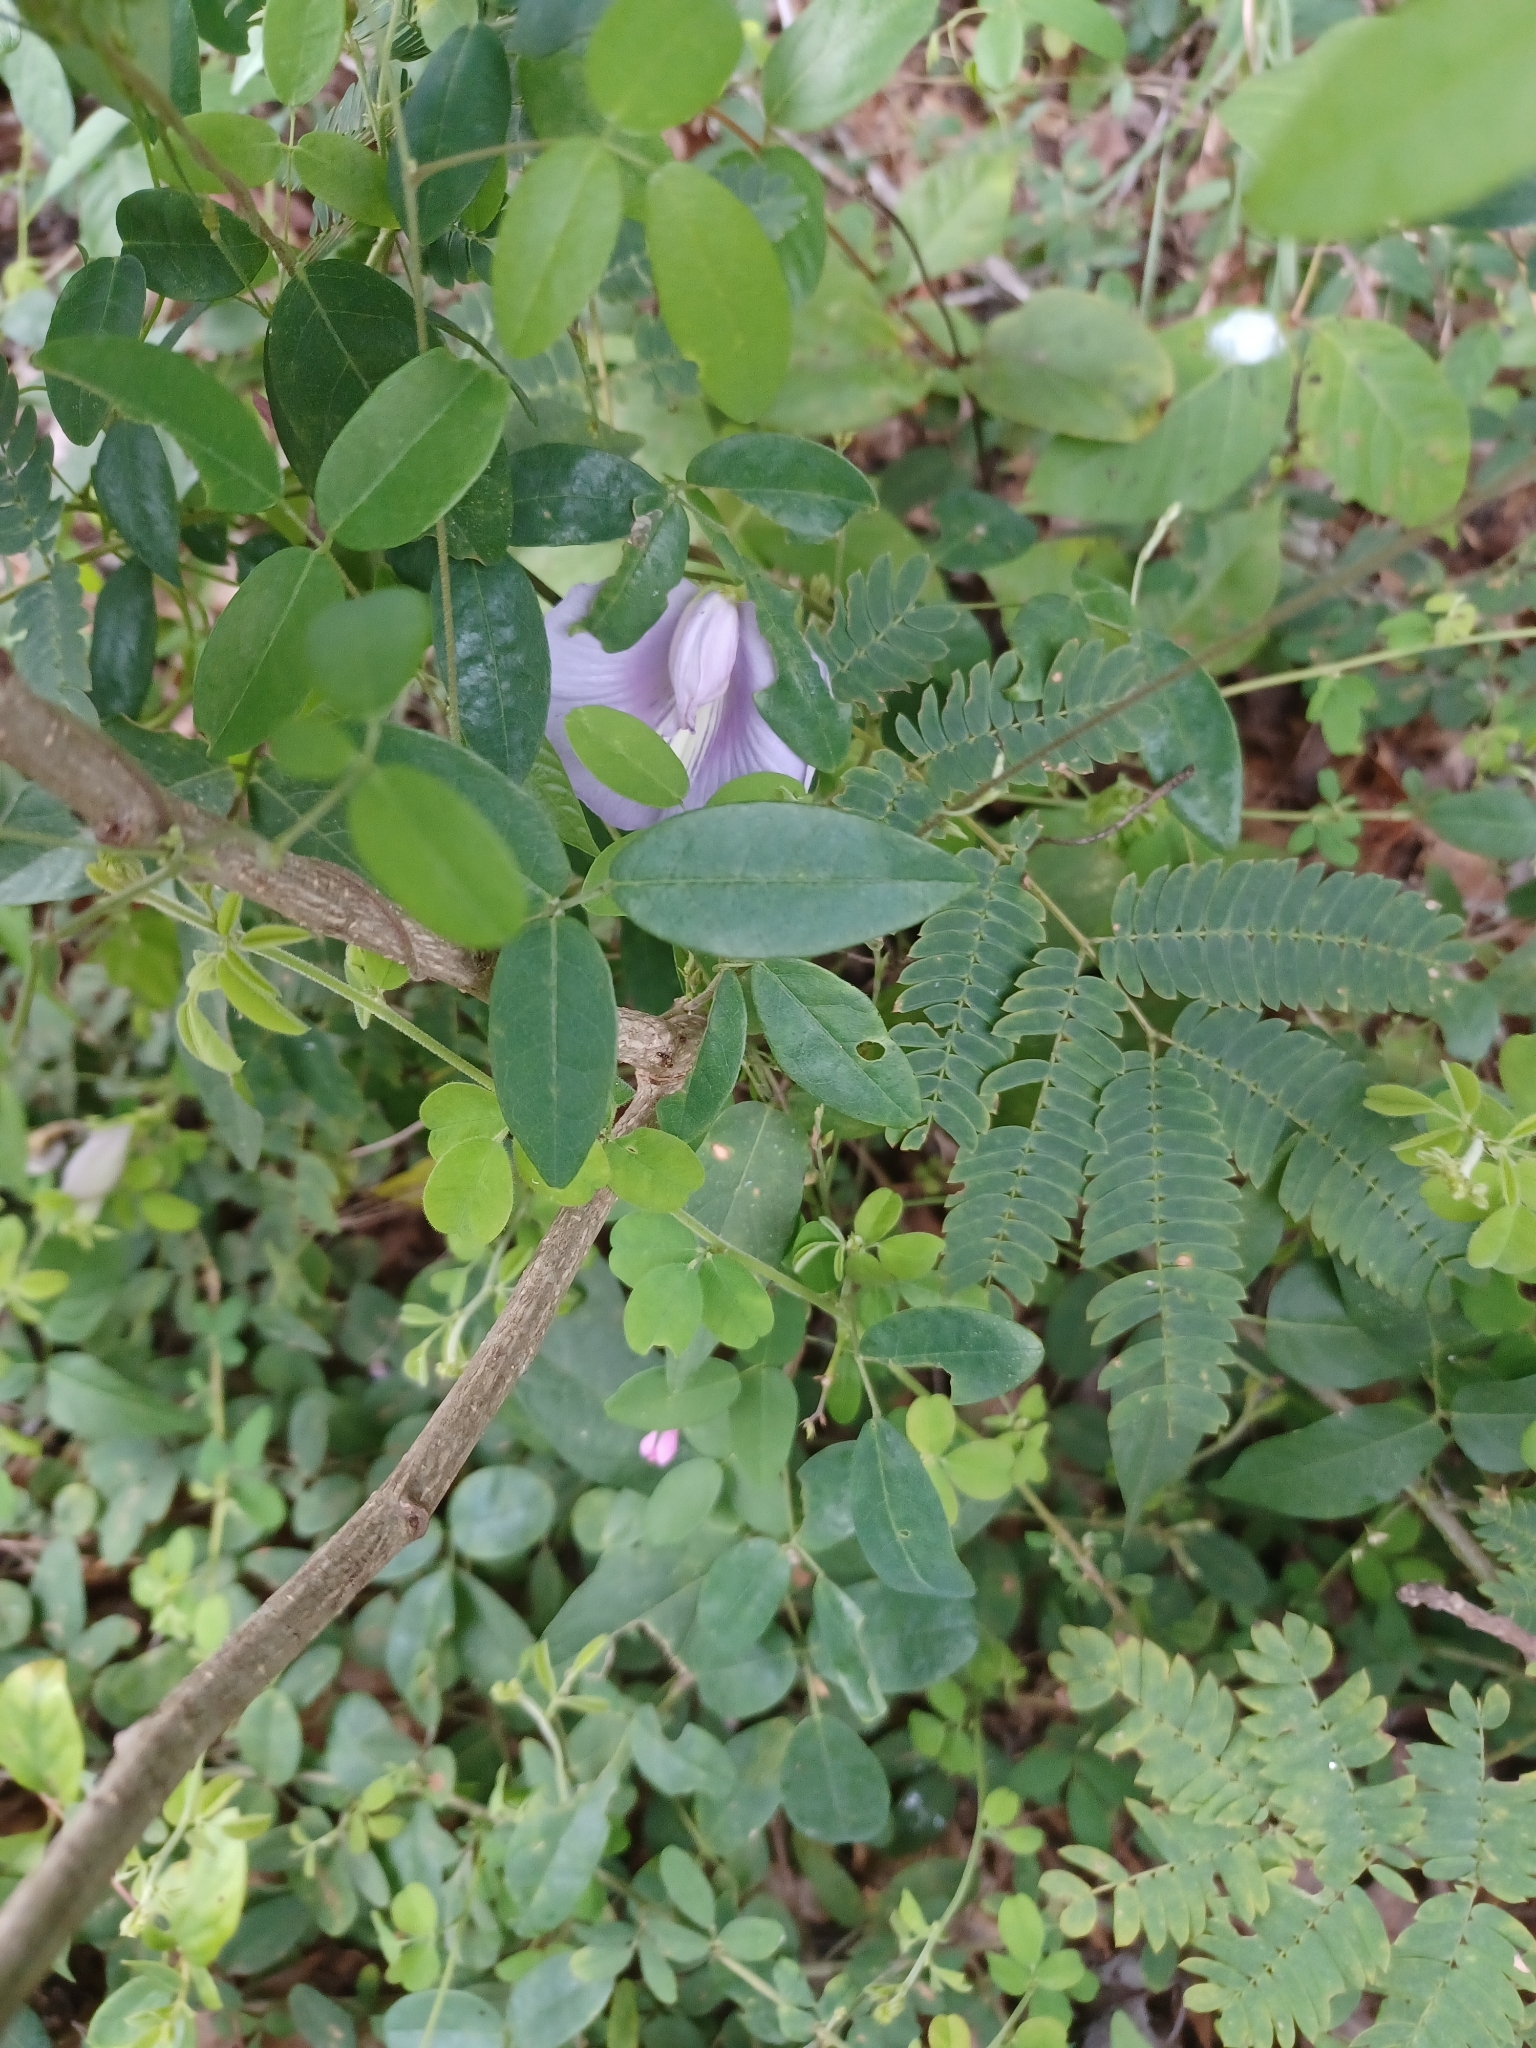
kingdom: Plantae
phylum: Tracheophyta
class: Magnoliopsida
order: Fabales
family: Fabaceae
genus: Centrosema
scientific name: Centrosema virginianum
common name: Butterfly-pea
